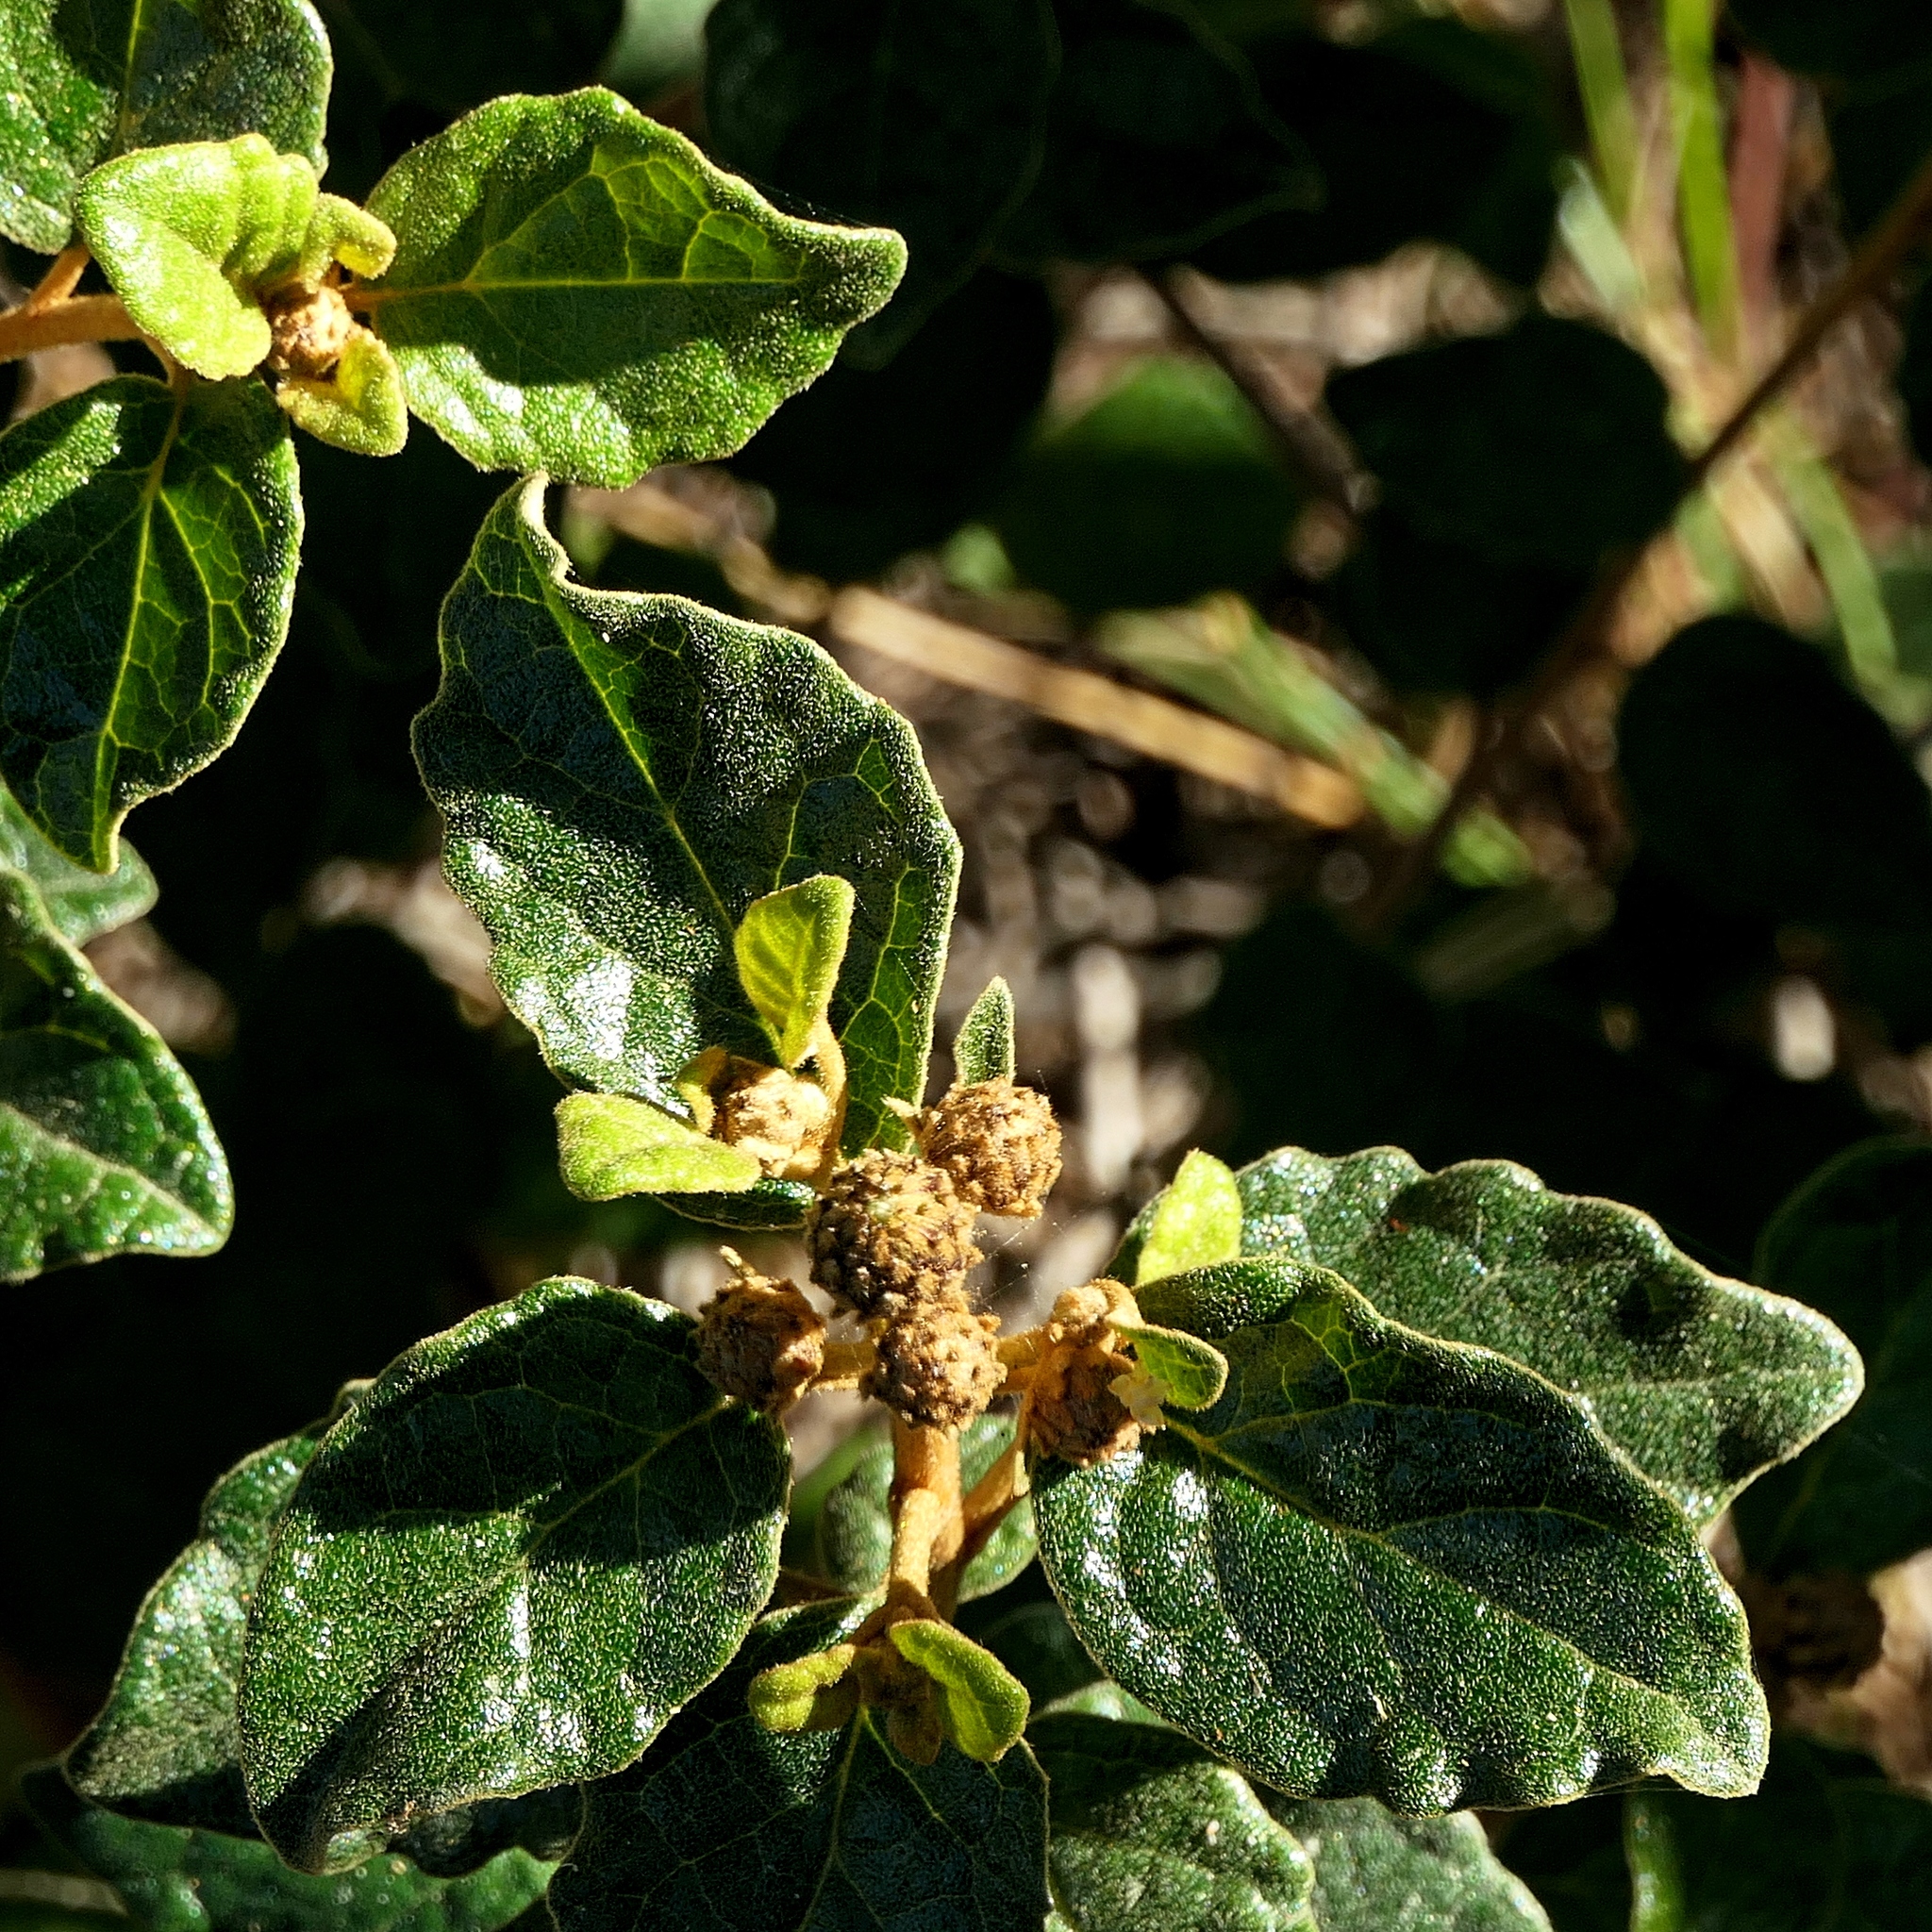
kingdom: Plantae
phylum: Tracheophyta
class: Magnoliopsida
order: Asterales
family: Asteraceae
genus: Olearia
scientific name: Olearia tomentosa
